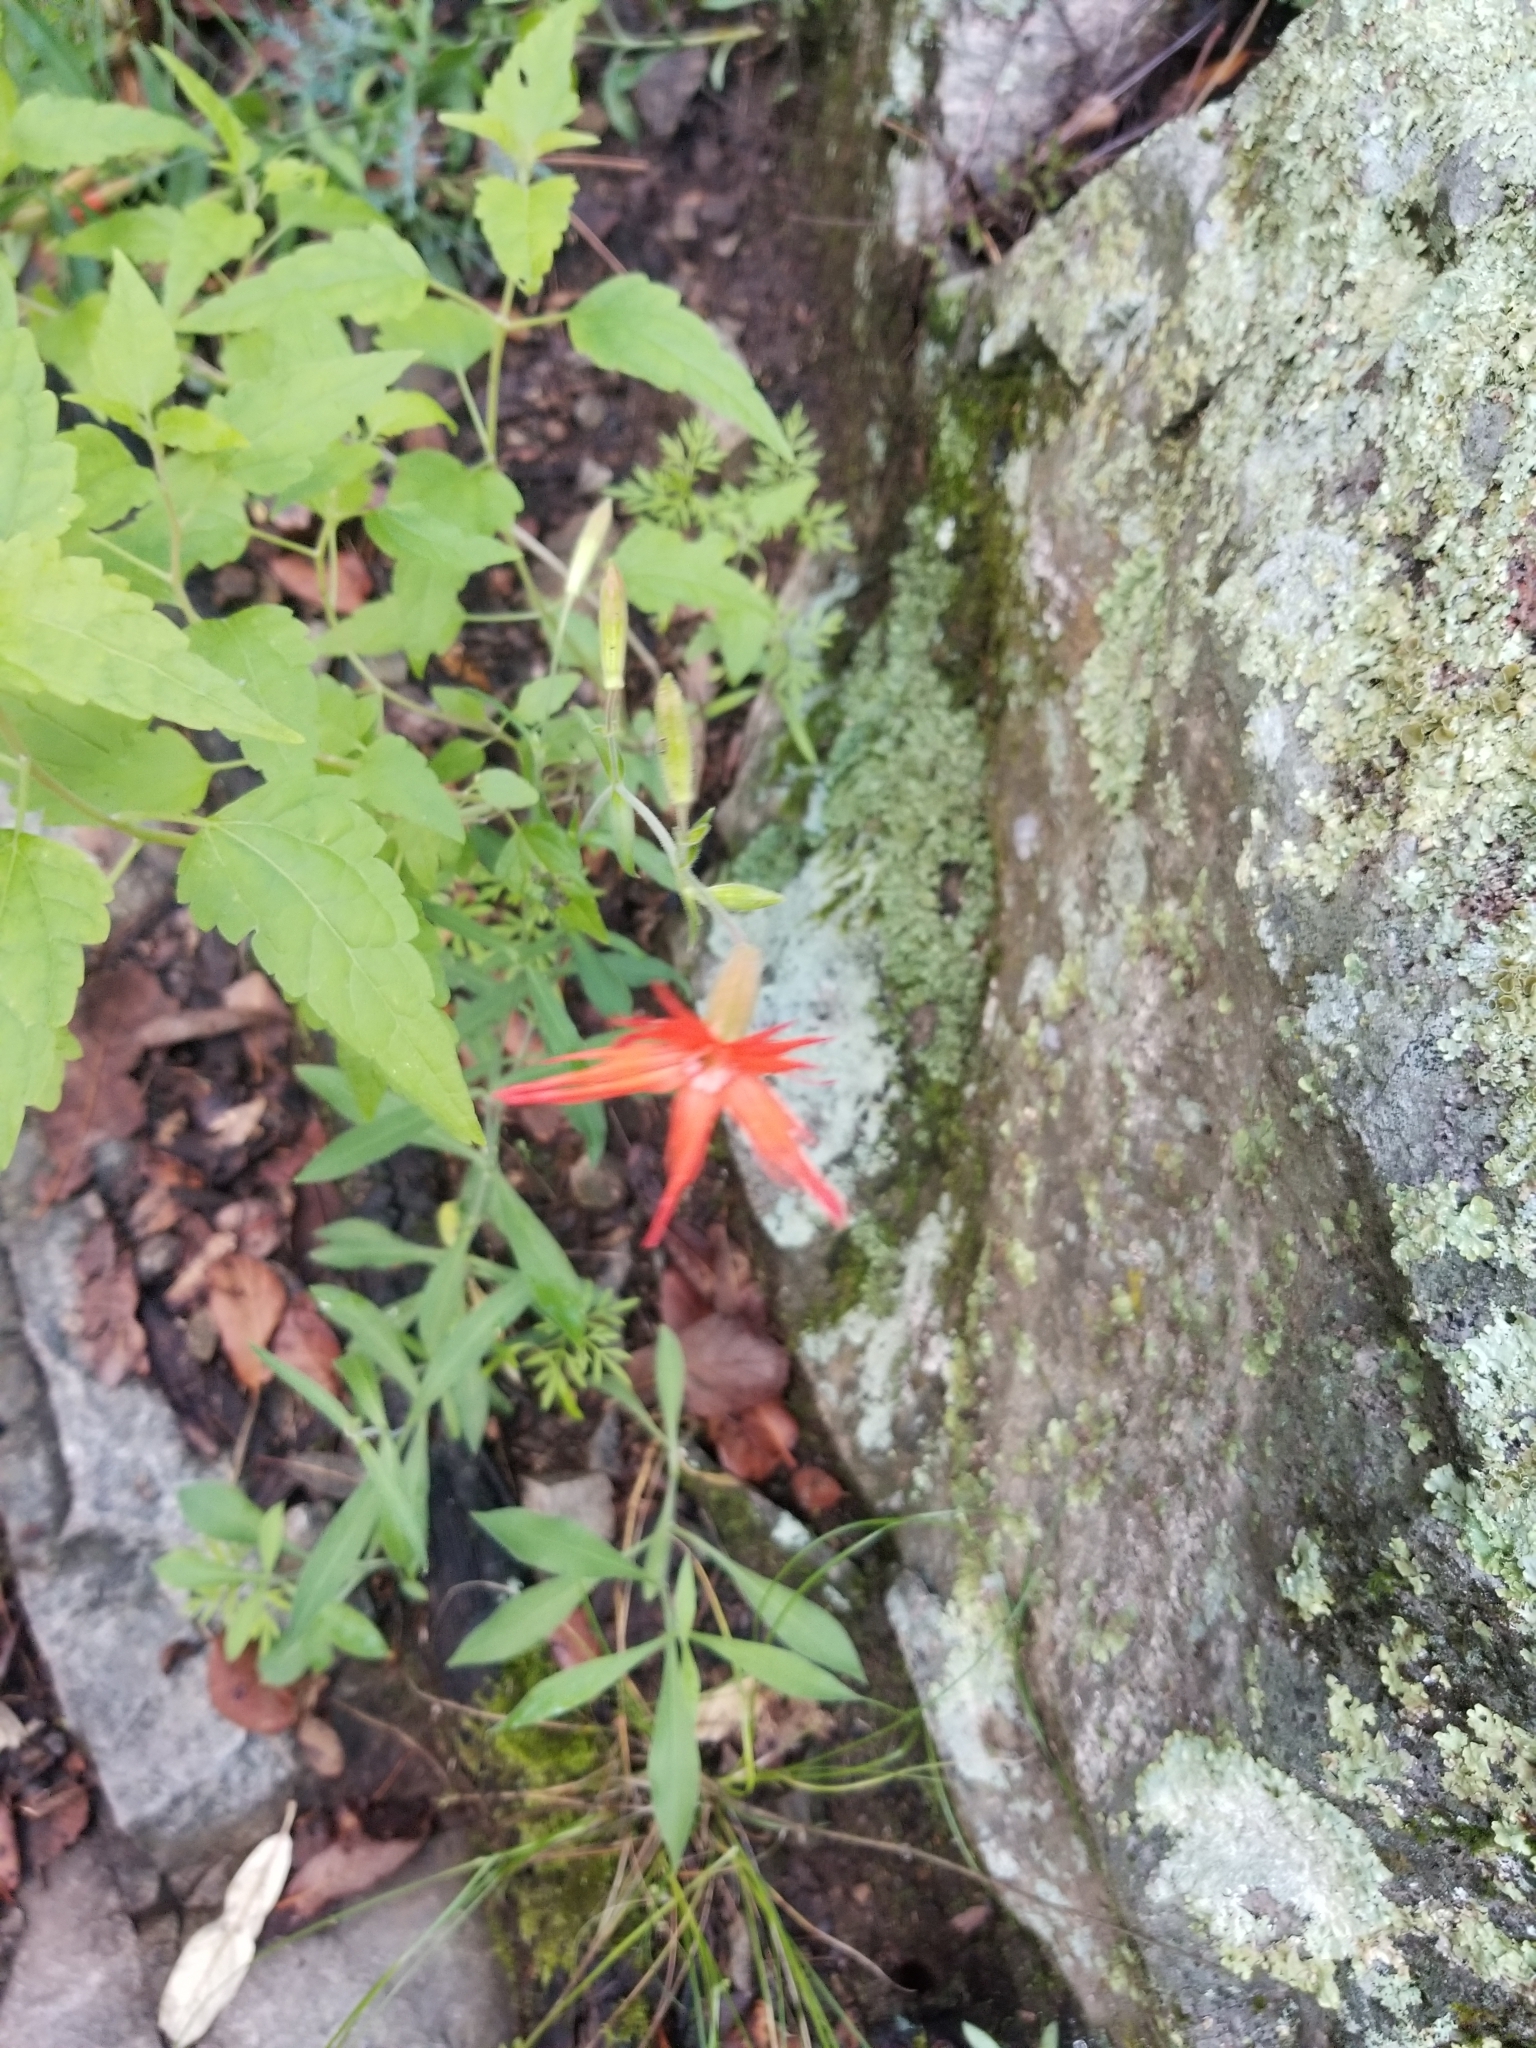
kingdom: Plantae
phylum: Tracheophyta
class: Magnoliopsida
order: Caryophyllales
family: Caryophyllaceae
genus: Silene
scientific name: Silene laciniata
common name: Indian-pink
